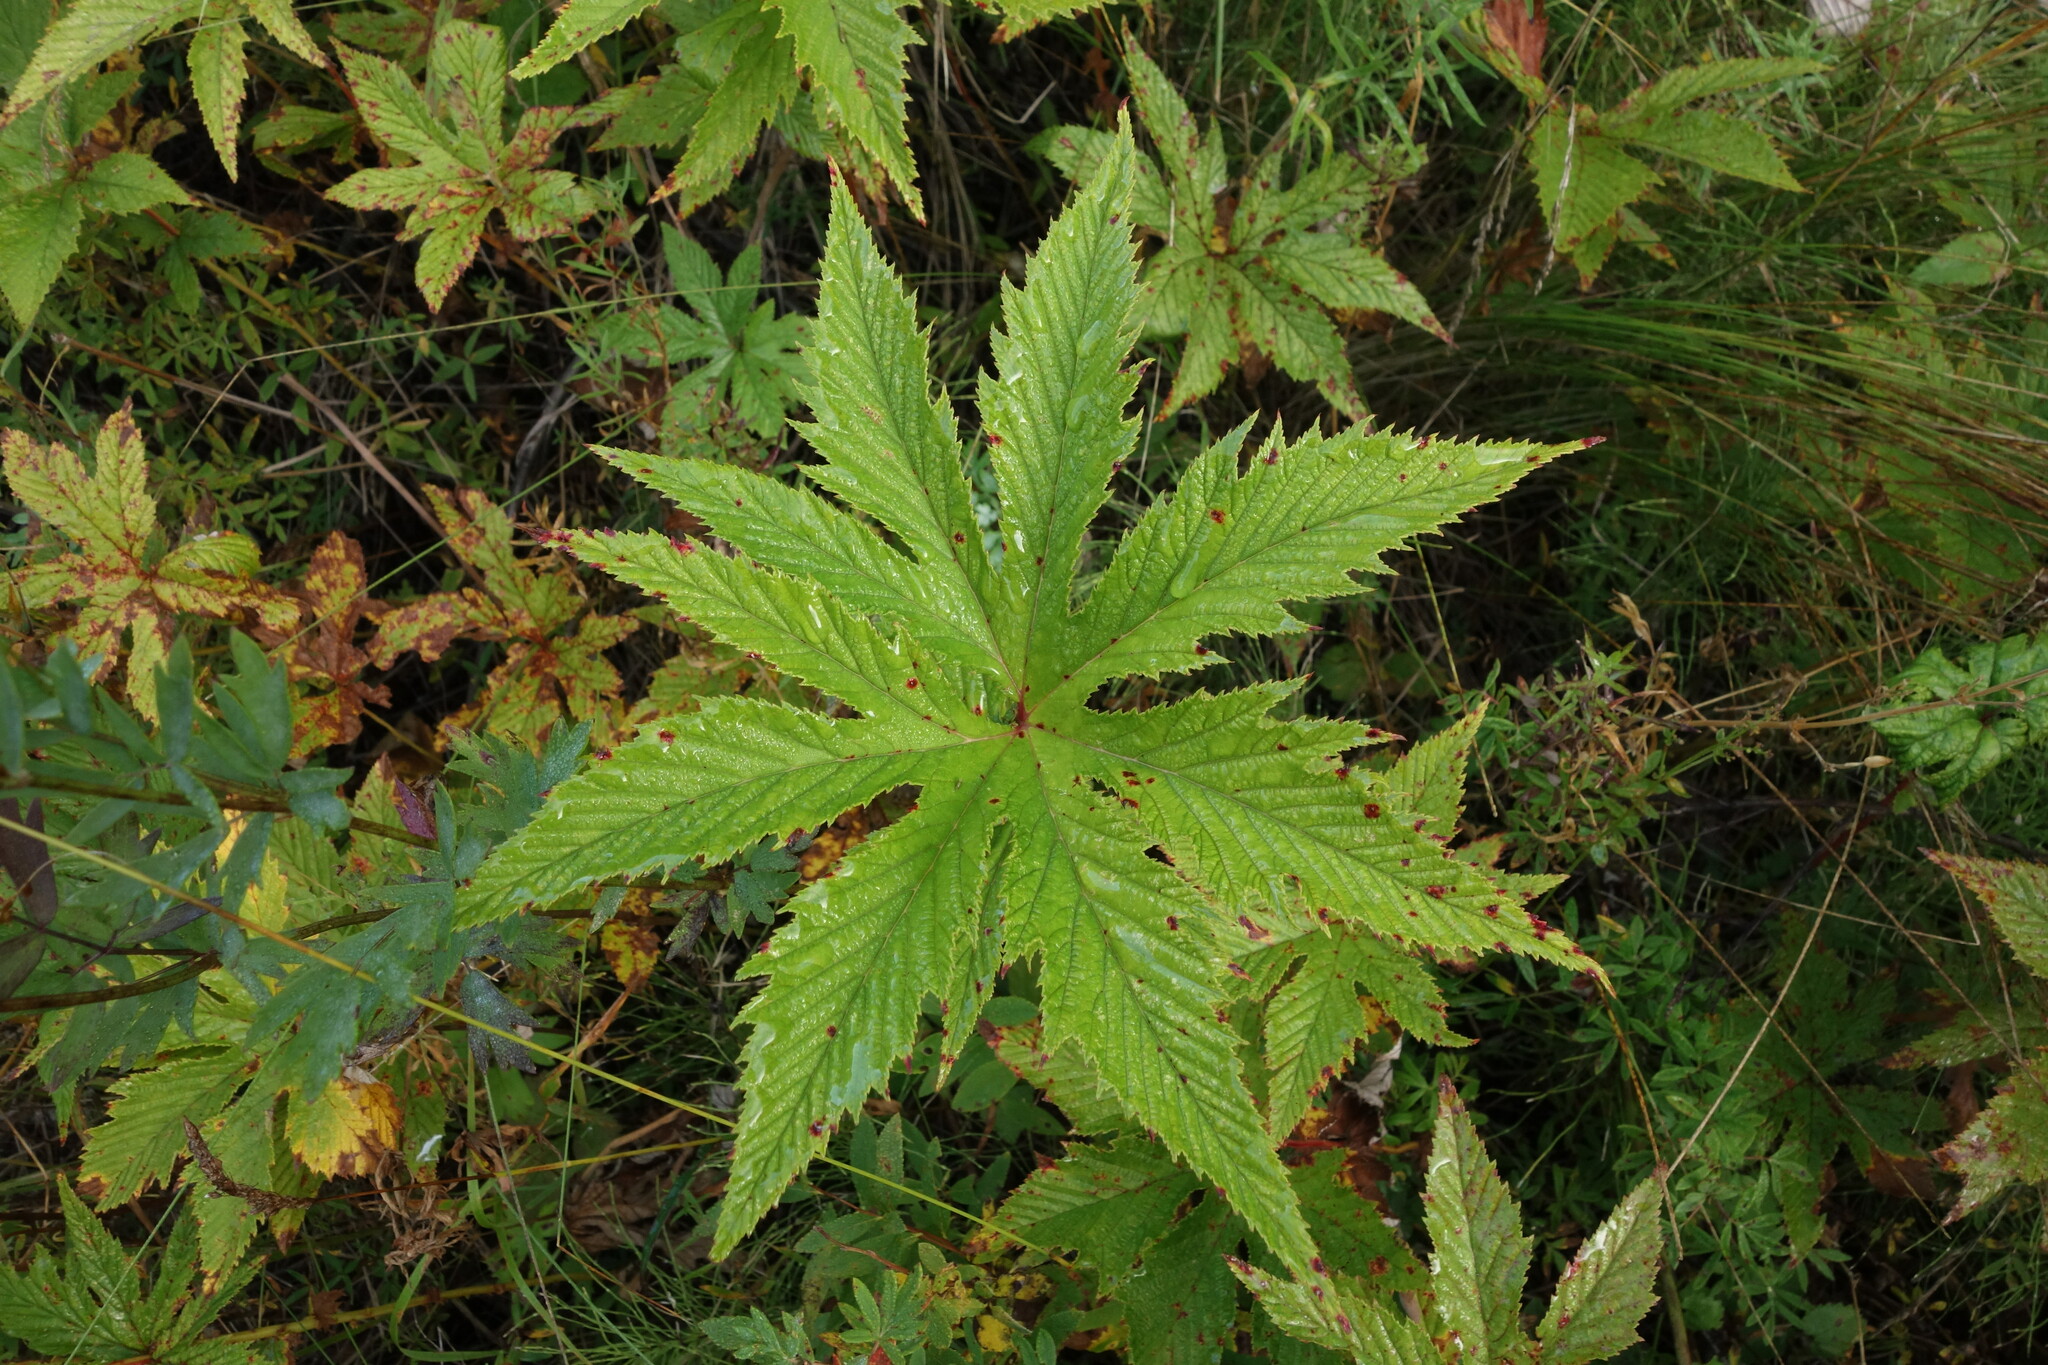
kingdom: Plantae
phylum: Tracheophyta
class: Magnoliopsida
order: Rosales
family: Rosaceae
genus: Filipendula
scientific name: Filipendula digitata
